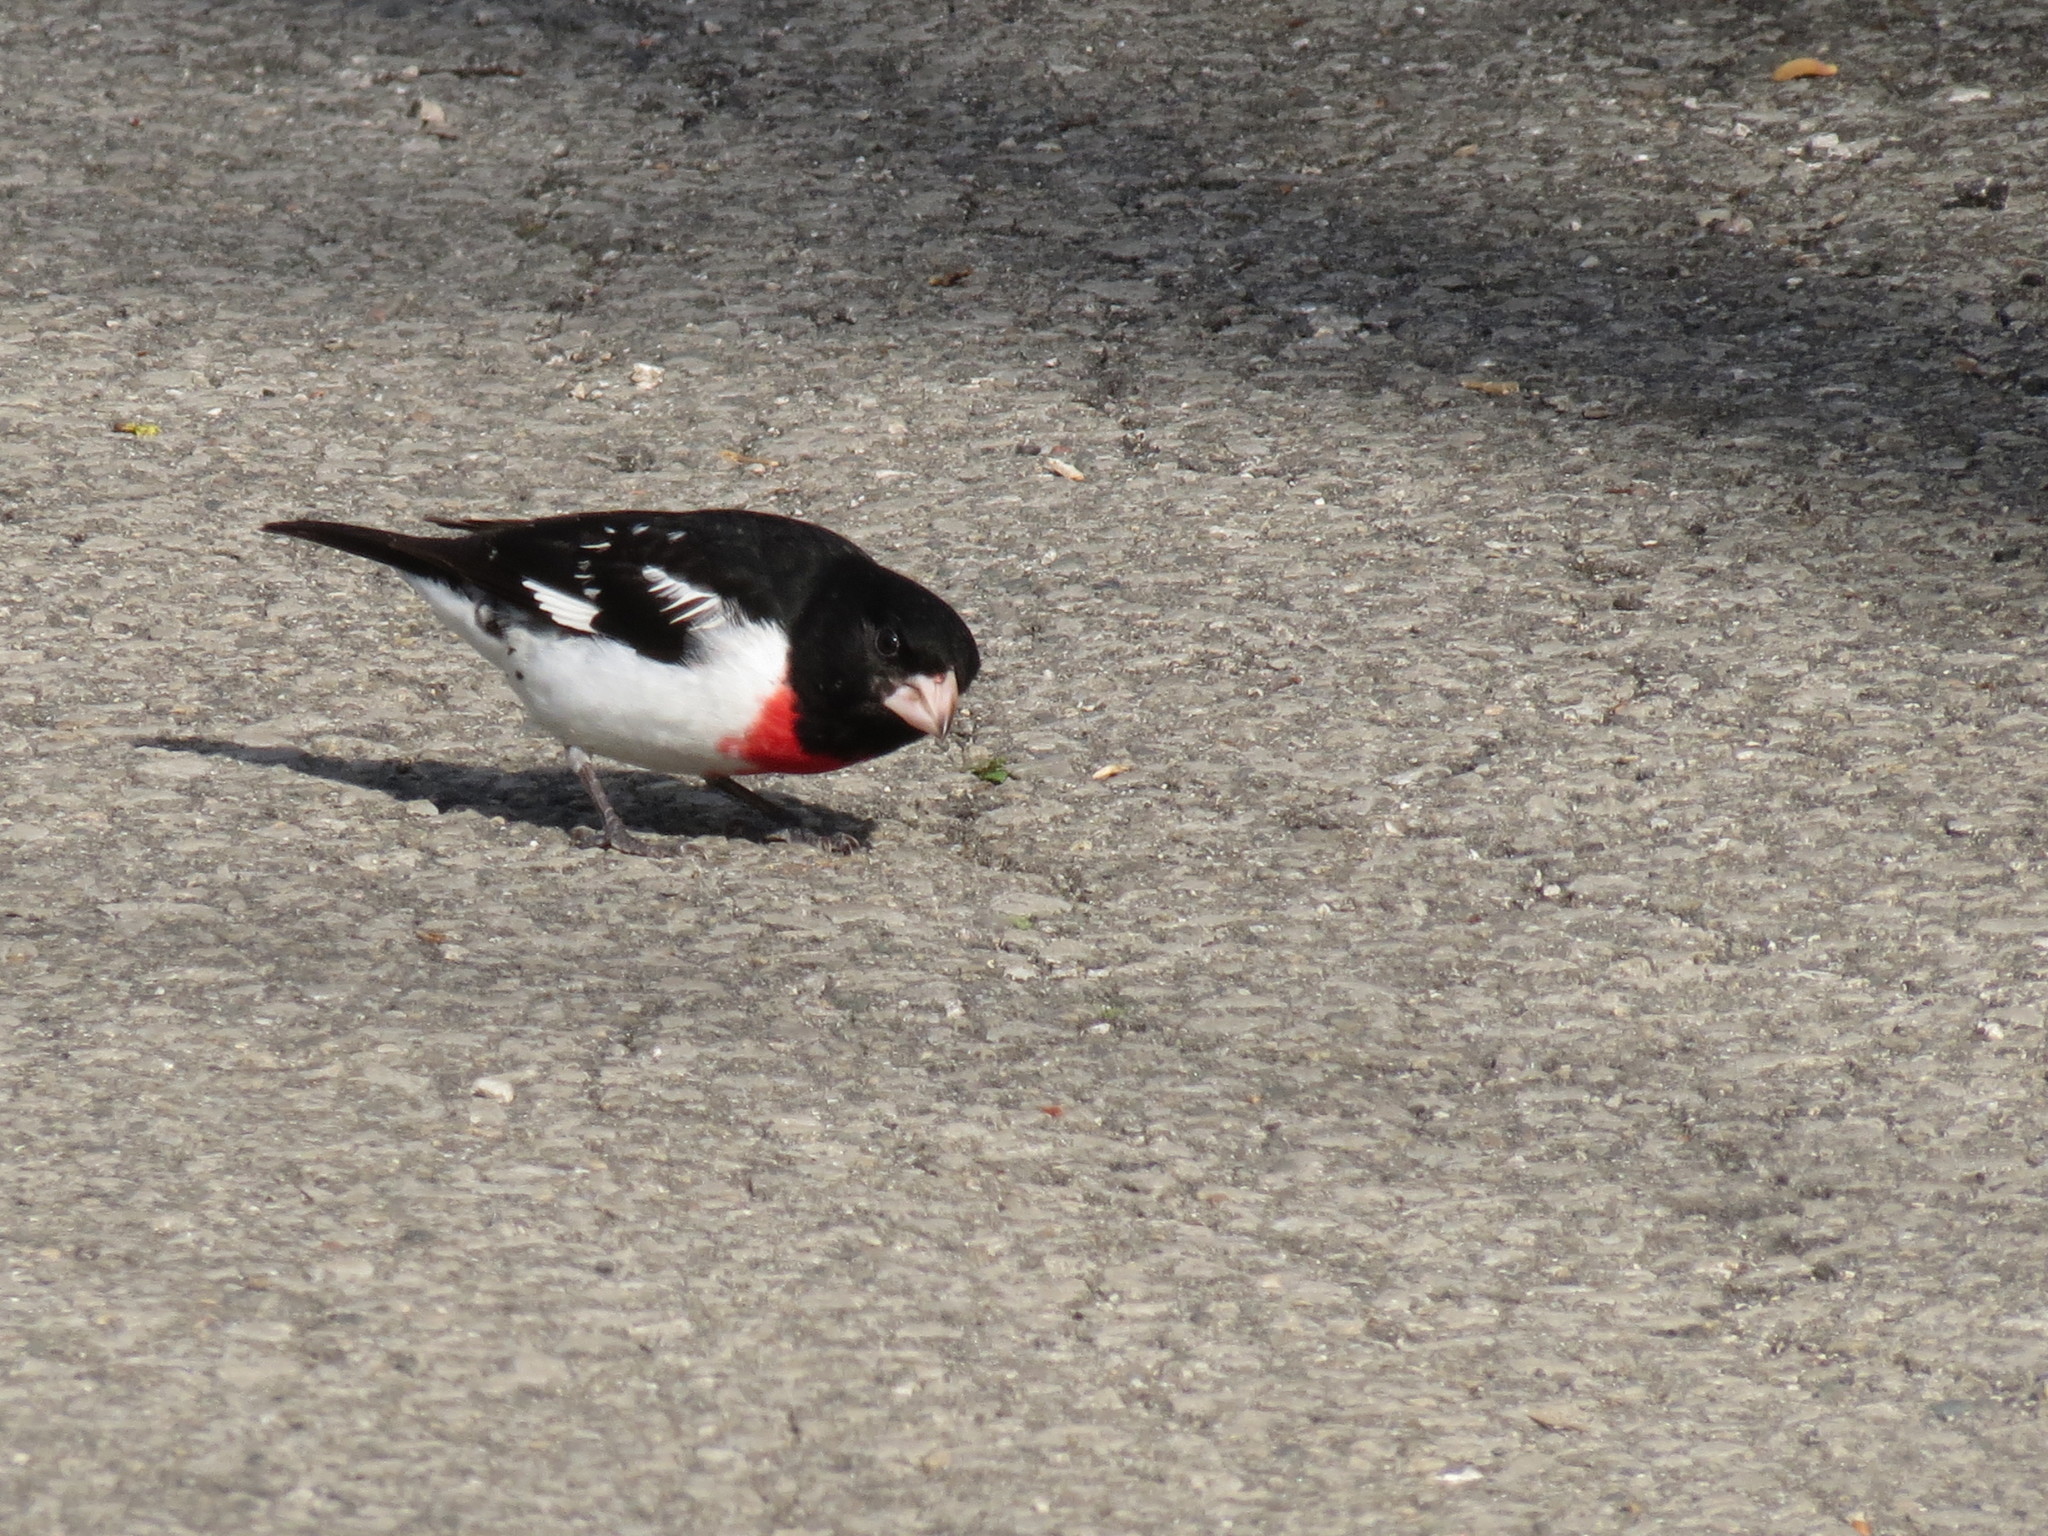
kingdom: Animalia
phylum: Chordata
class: Aves
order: Passeriformes
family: Cardinalidae
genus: Pheucticus
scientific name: Pheucticus ludovicianus
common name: Rose-breasted grosbeak
